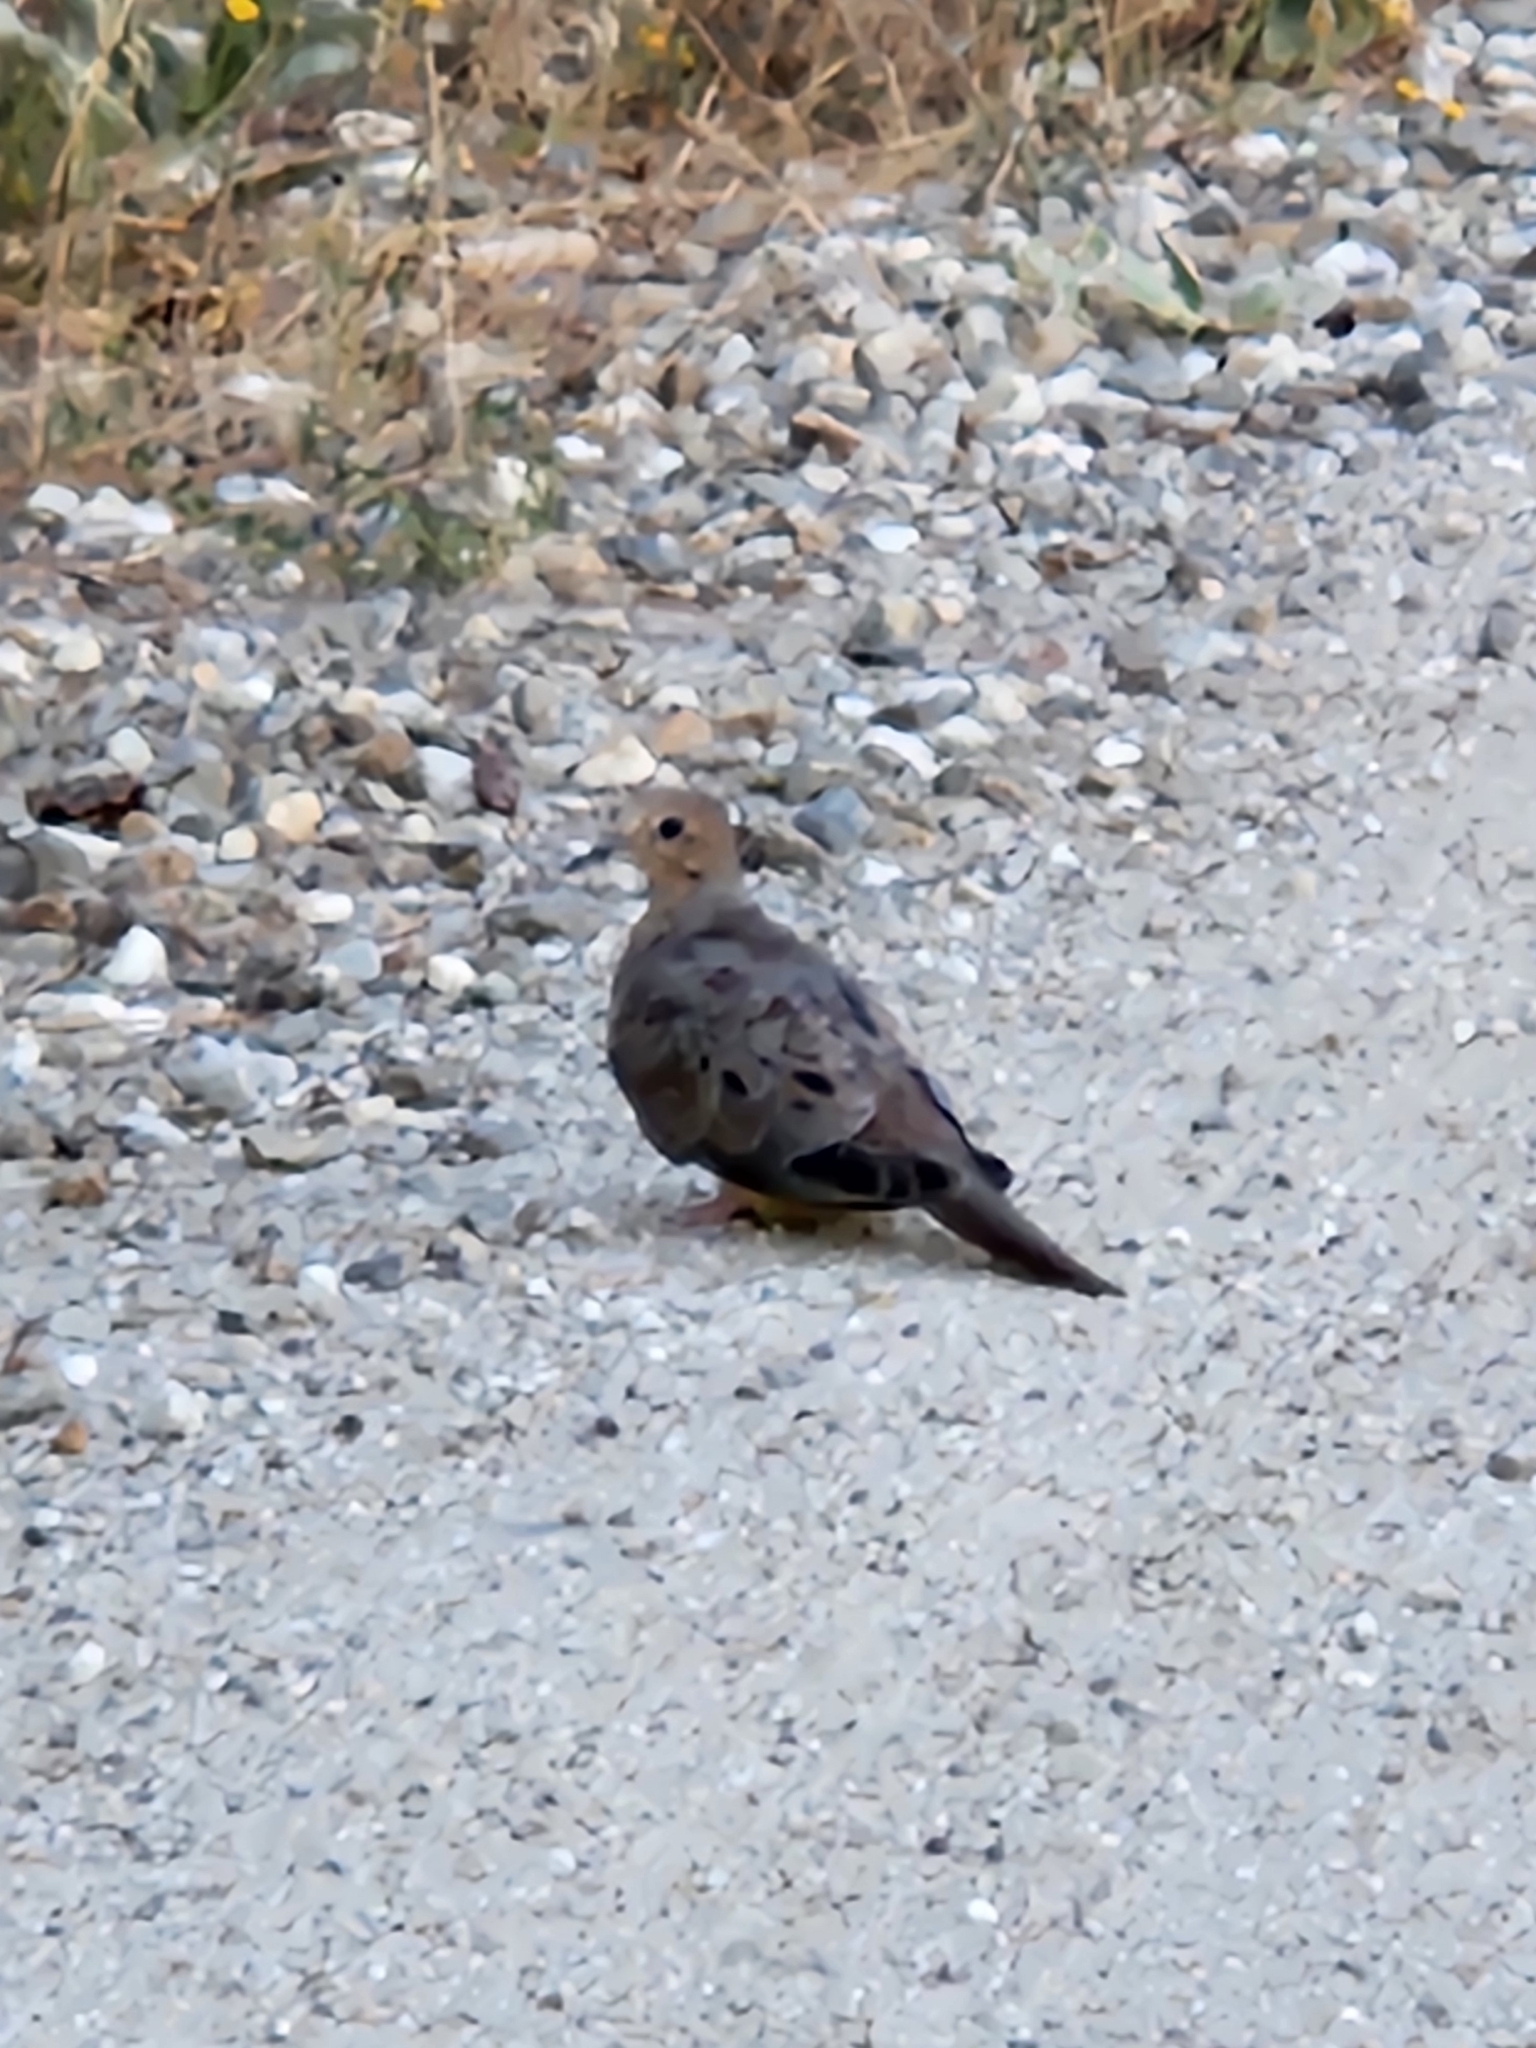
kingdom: Animalia
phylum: Chordata
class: Aves
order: Columbiformes
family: Columbidae
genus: Zenaida
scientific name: Zenaida macroura
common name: Mourning dove
